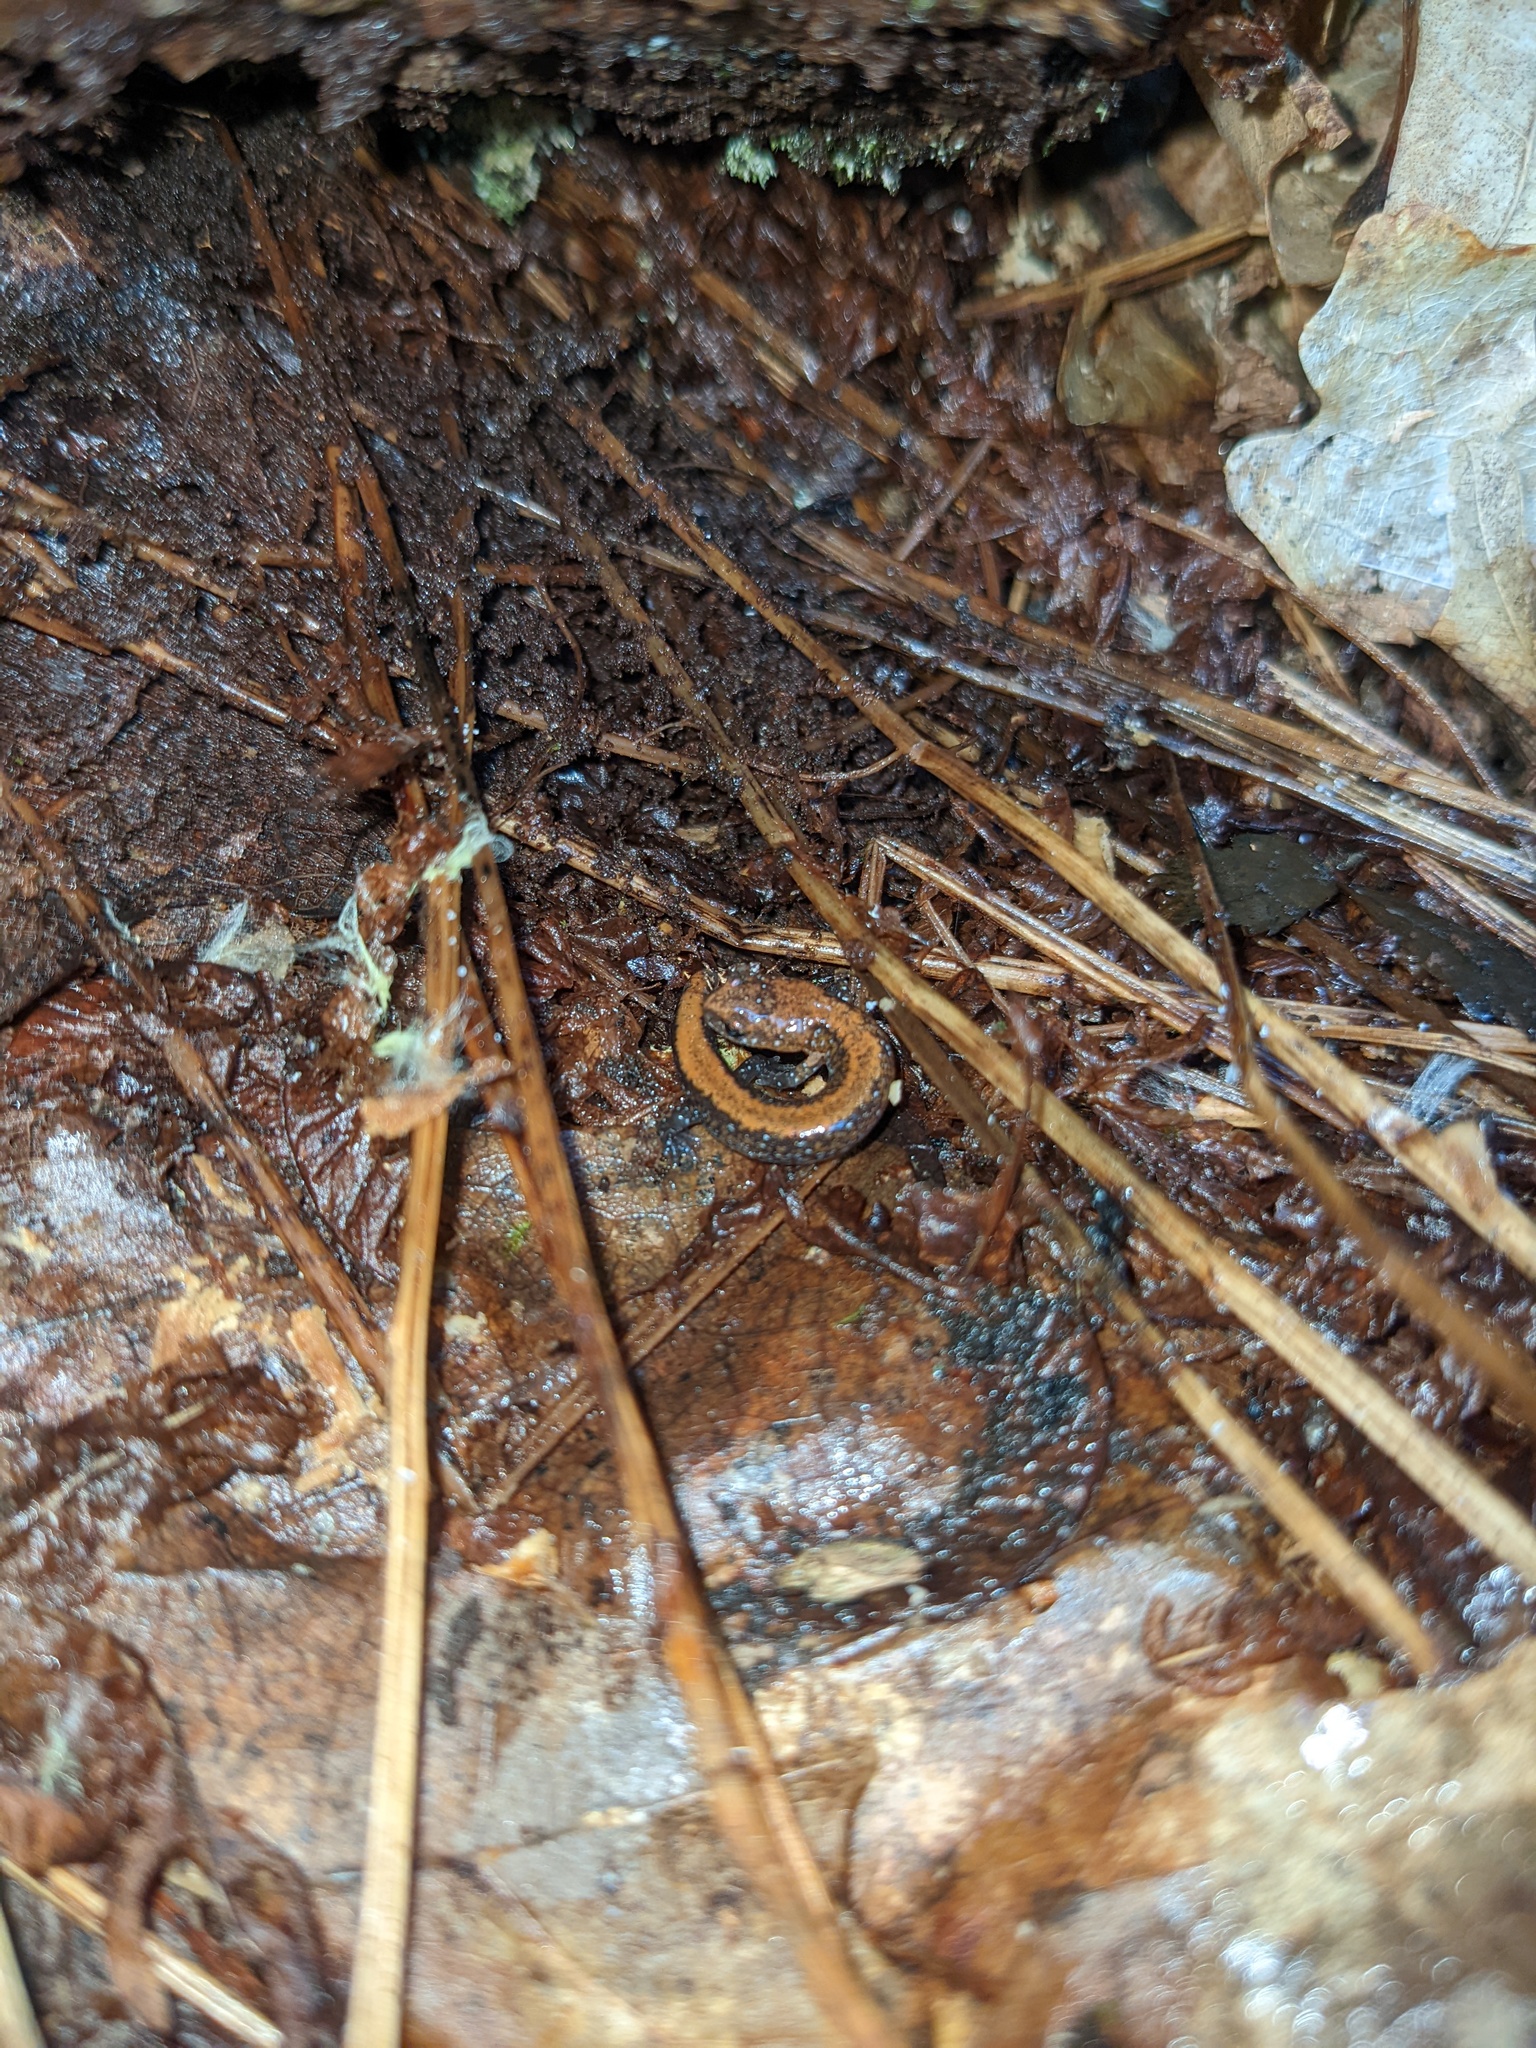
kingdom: Animalia
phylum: Chordata
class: Amphibia
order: Caudata
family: Plethodontidae
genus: Plethodon
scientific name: Plethodon cinereus
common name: Redback salamander
